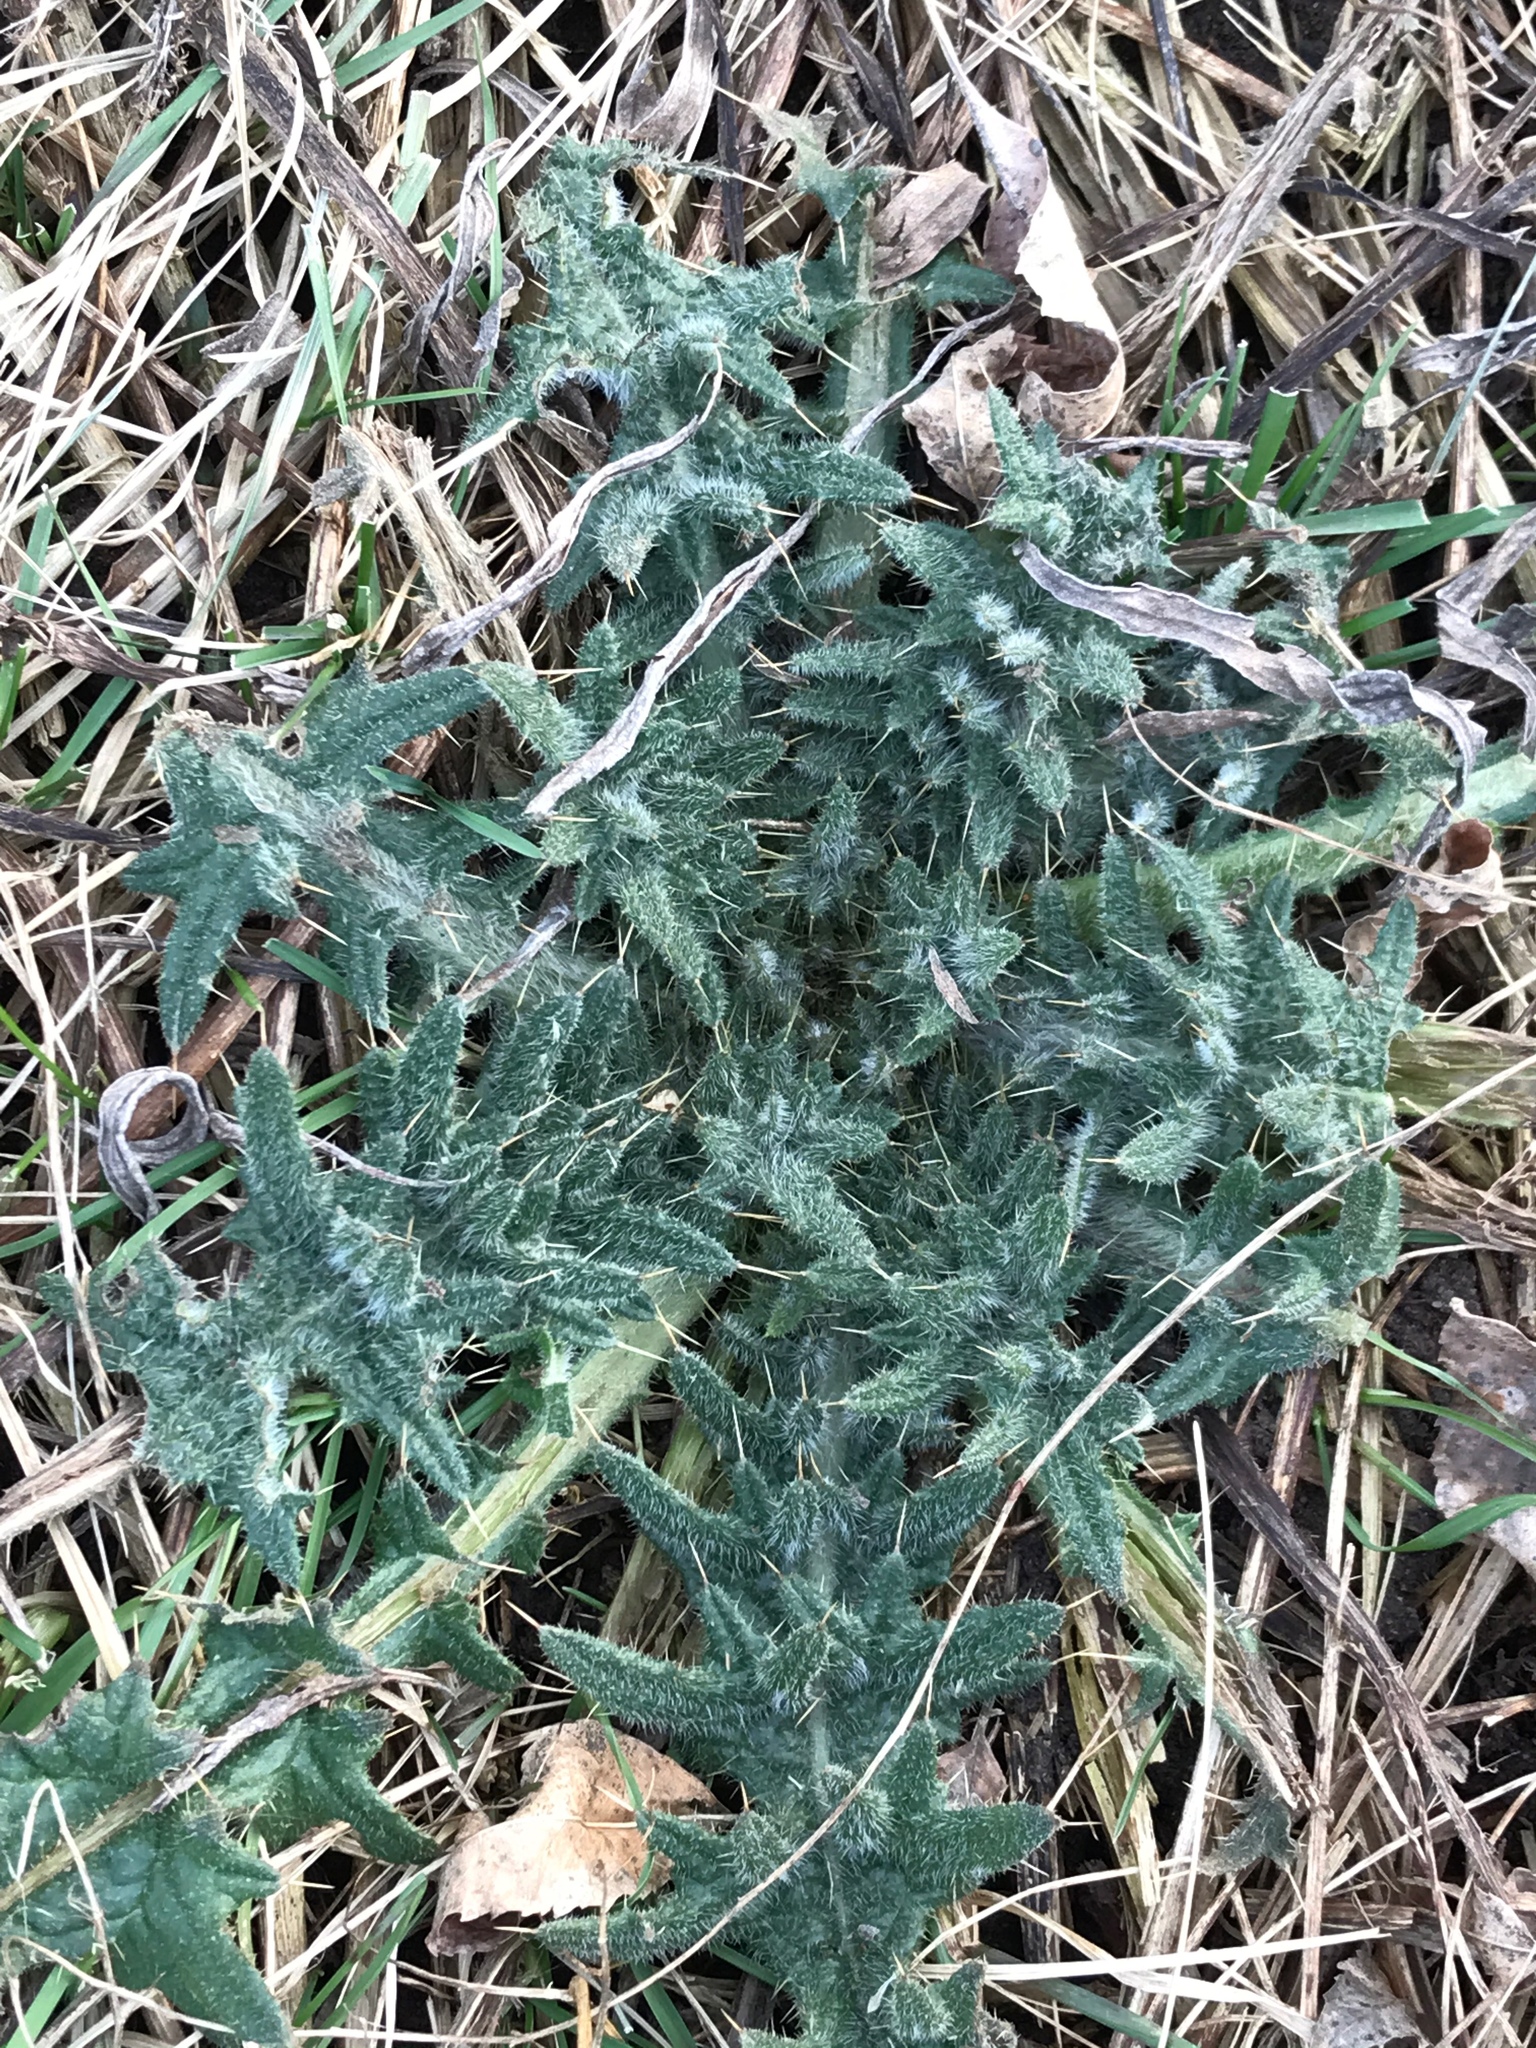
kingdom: Plantae
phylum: Tracheophyta
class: Magnoliopsida
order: Asterales
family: Asteraceae
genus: Cirsium
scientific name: Cirsium vulgare
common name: Bull thistle
